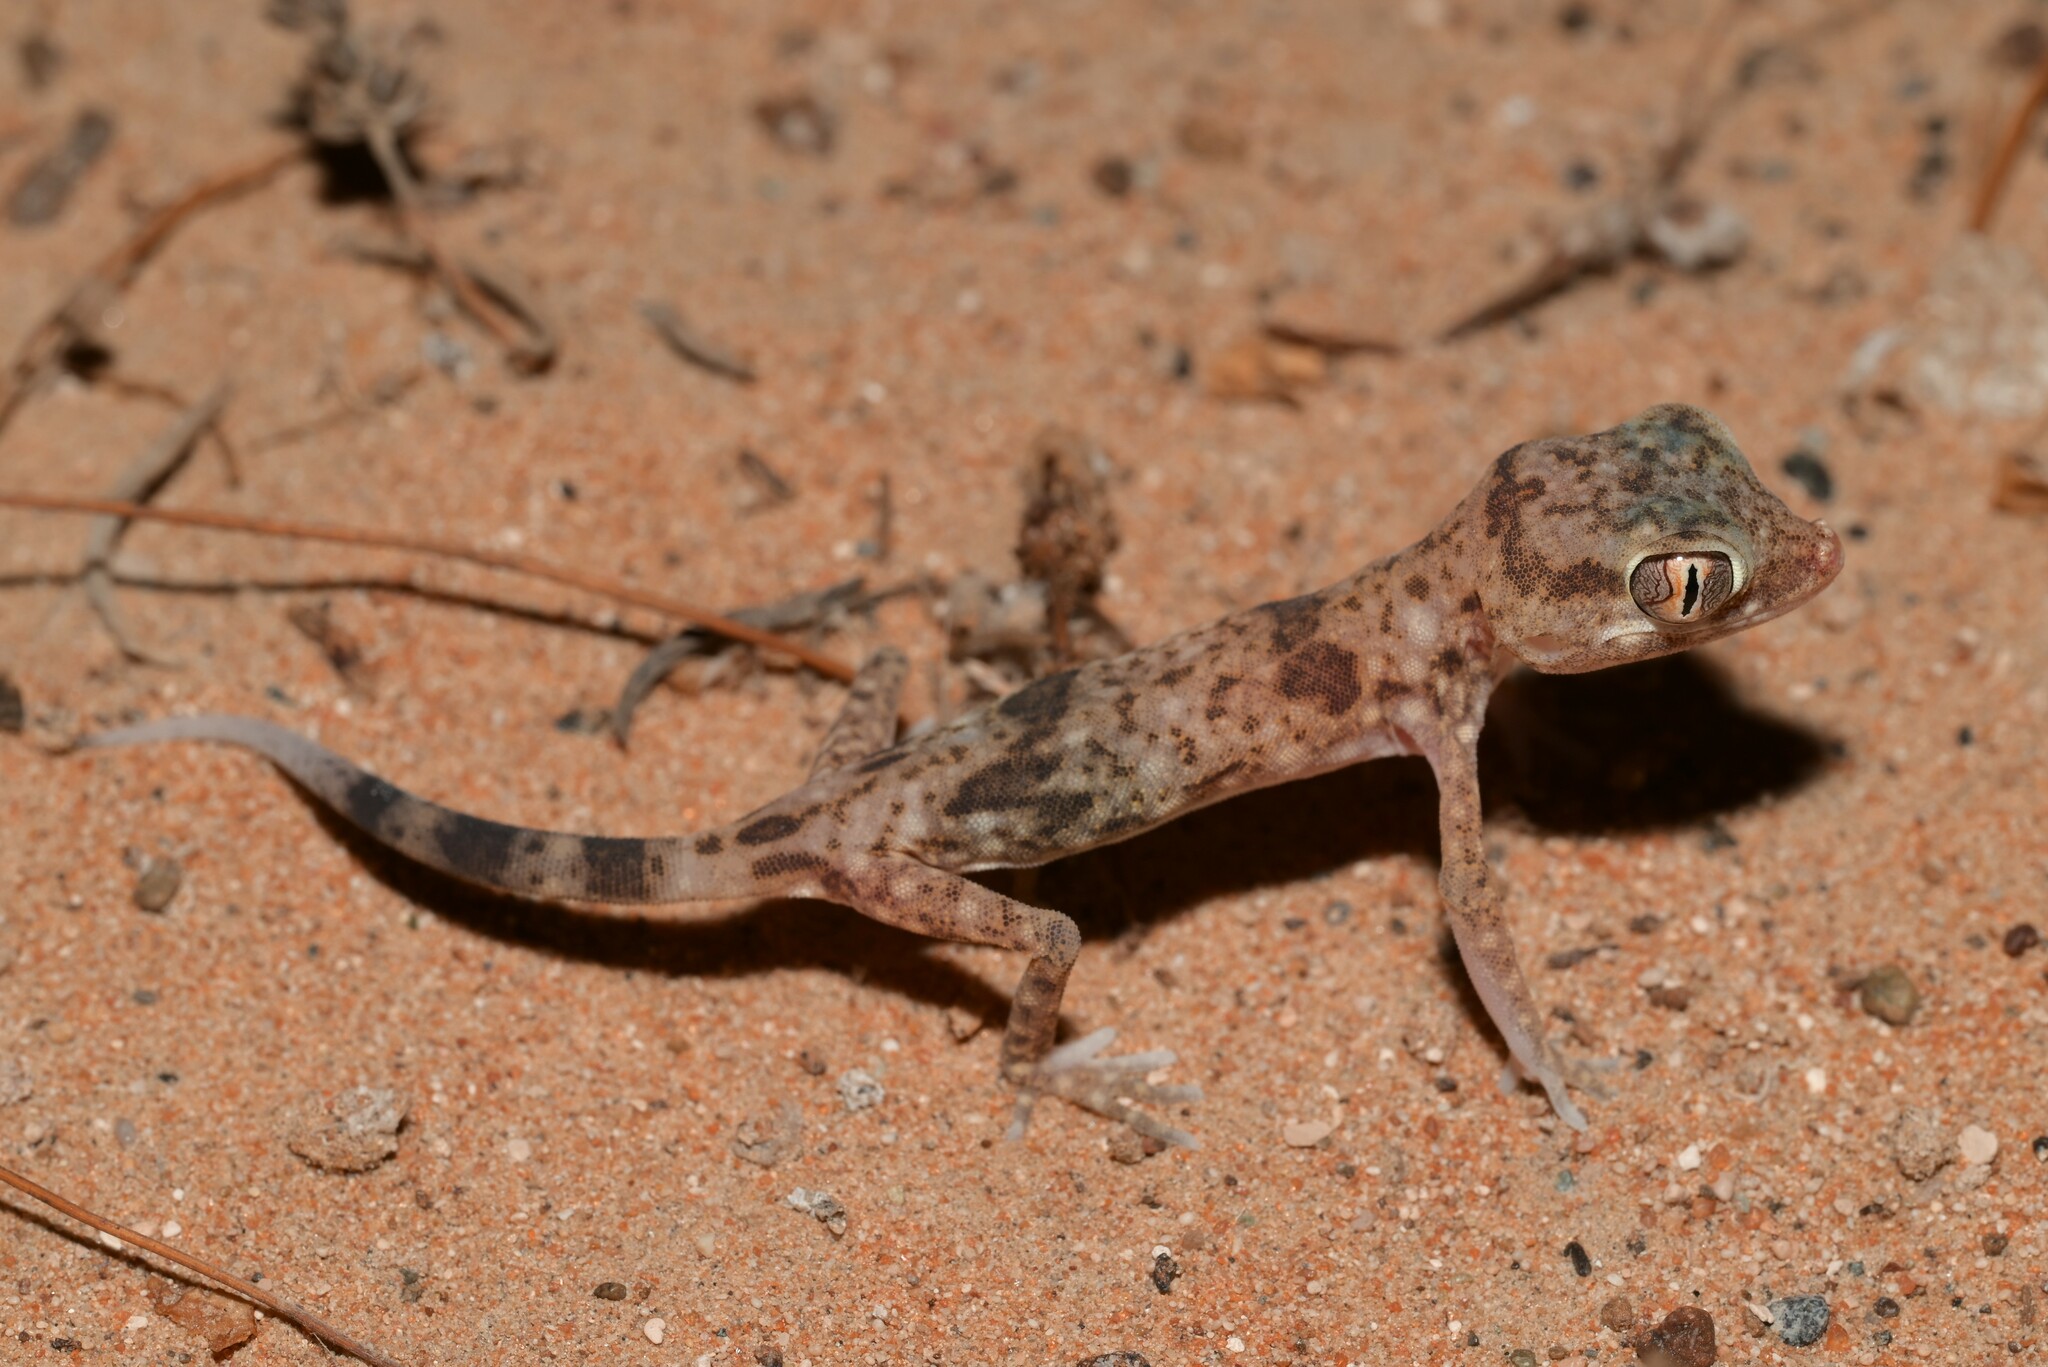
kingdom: Animalia
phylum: Chordata
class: Squamata
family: Gekkonidae
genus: Stenodactylus
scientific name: Stenodactylus leptocosymbotes
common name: Eastern sand gecko
